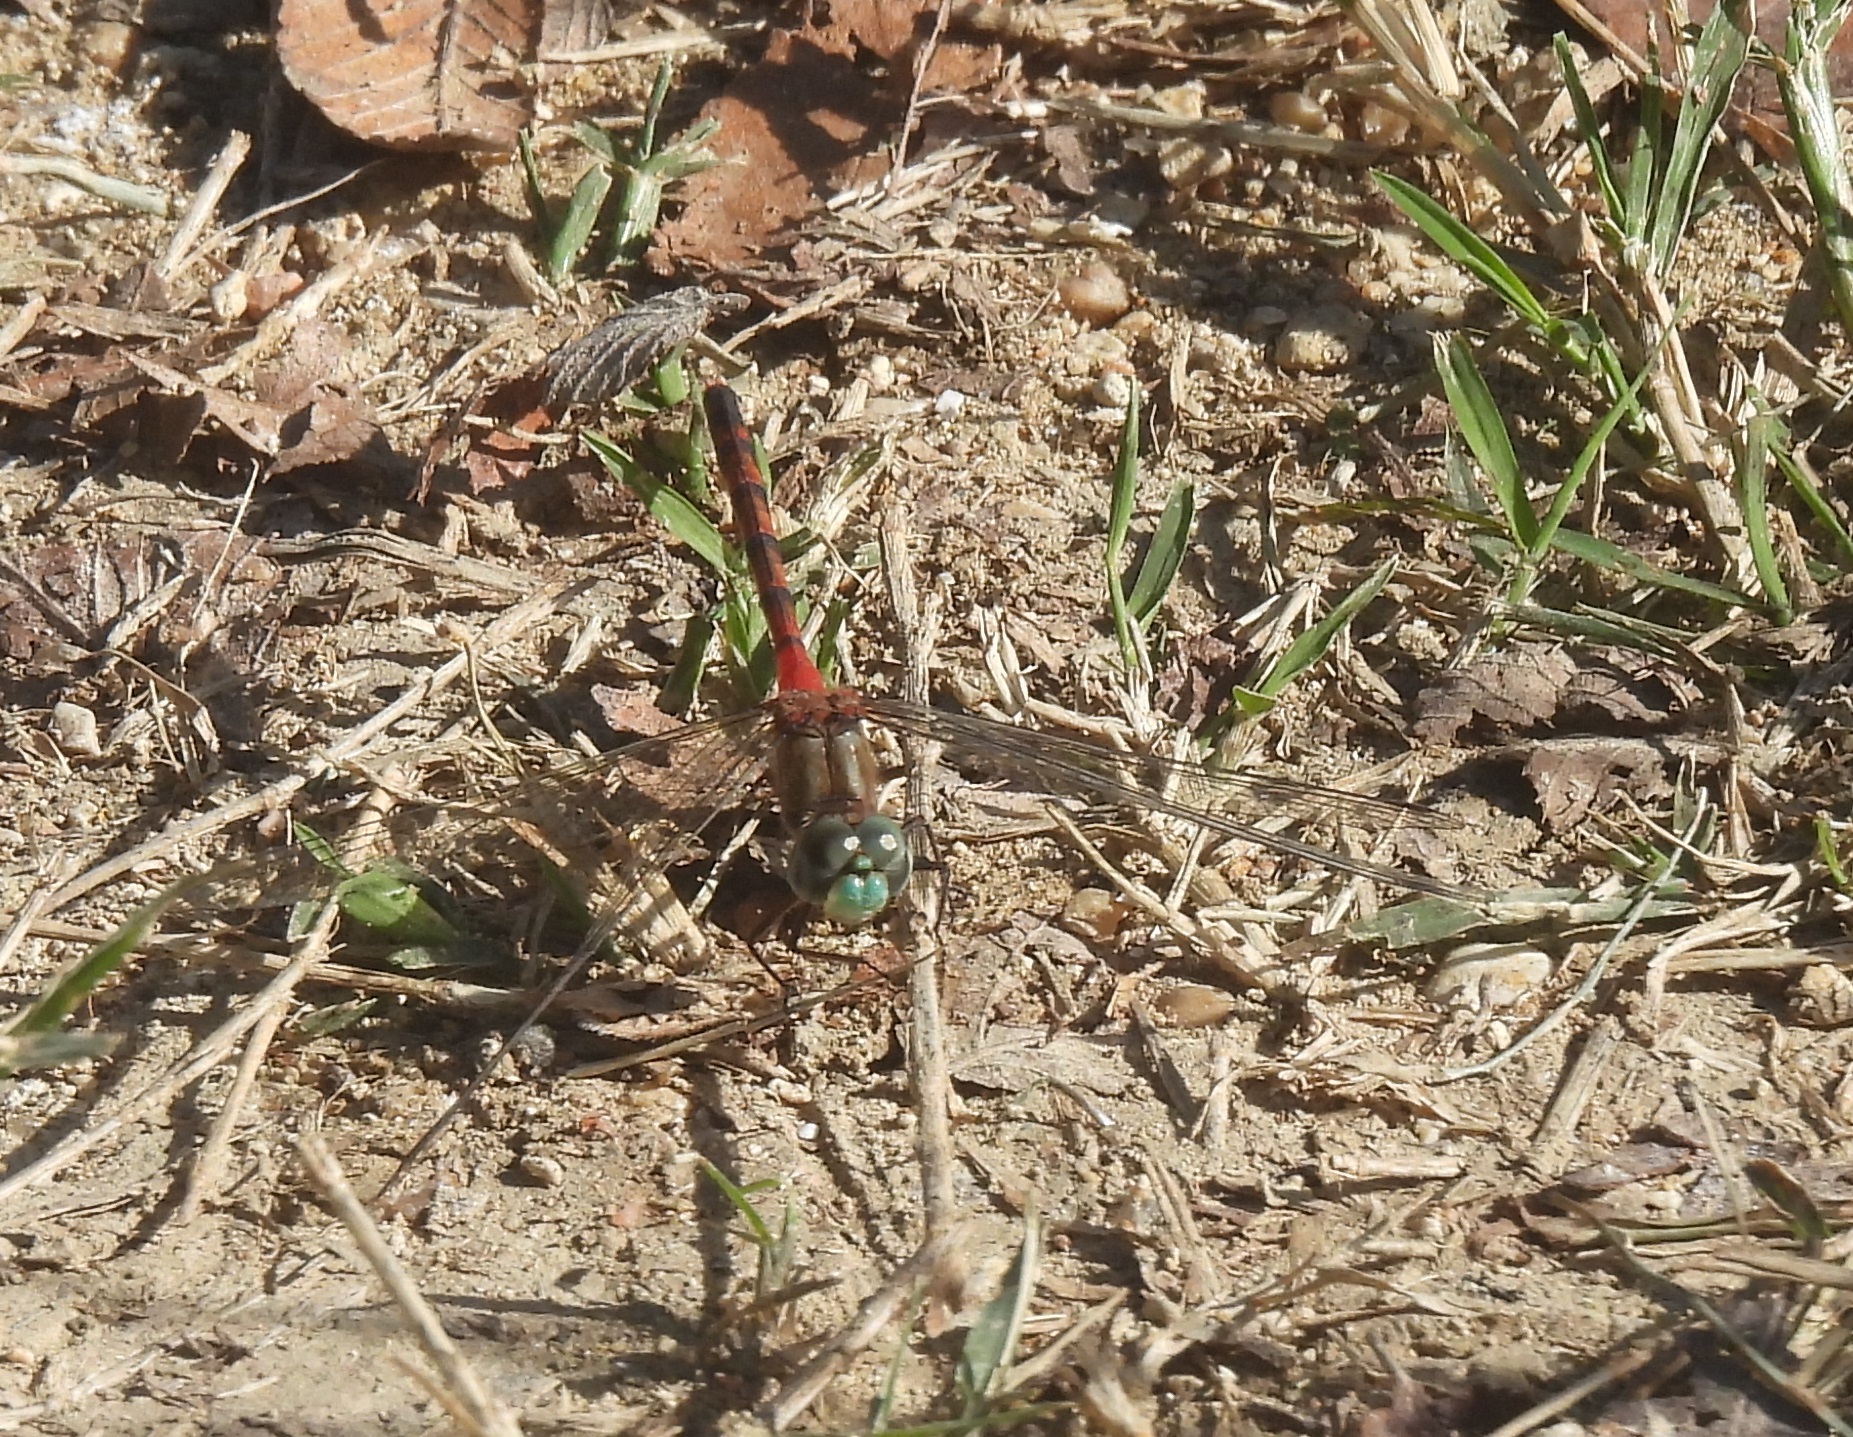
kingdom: Animalia
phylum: Arthropoda
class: Insecta
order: Odonata
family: Libellulidae
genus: Sympetrum
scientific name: Sympetrum ambiguum
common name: Blue-faced meadowhawk
